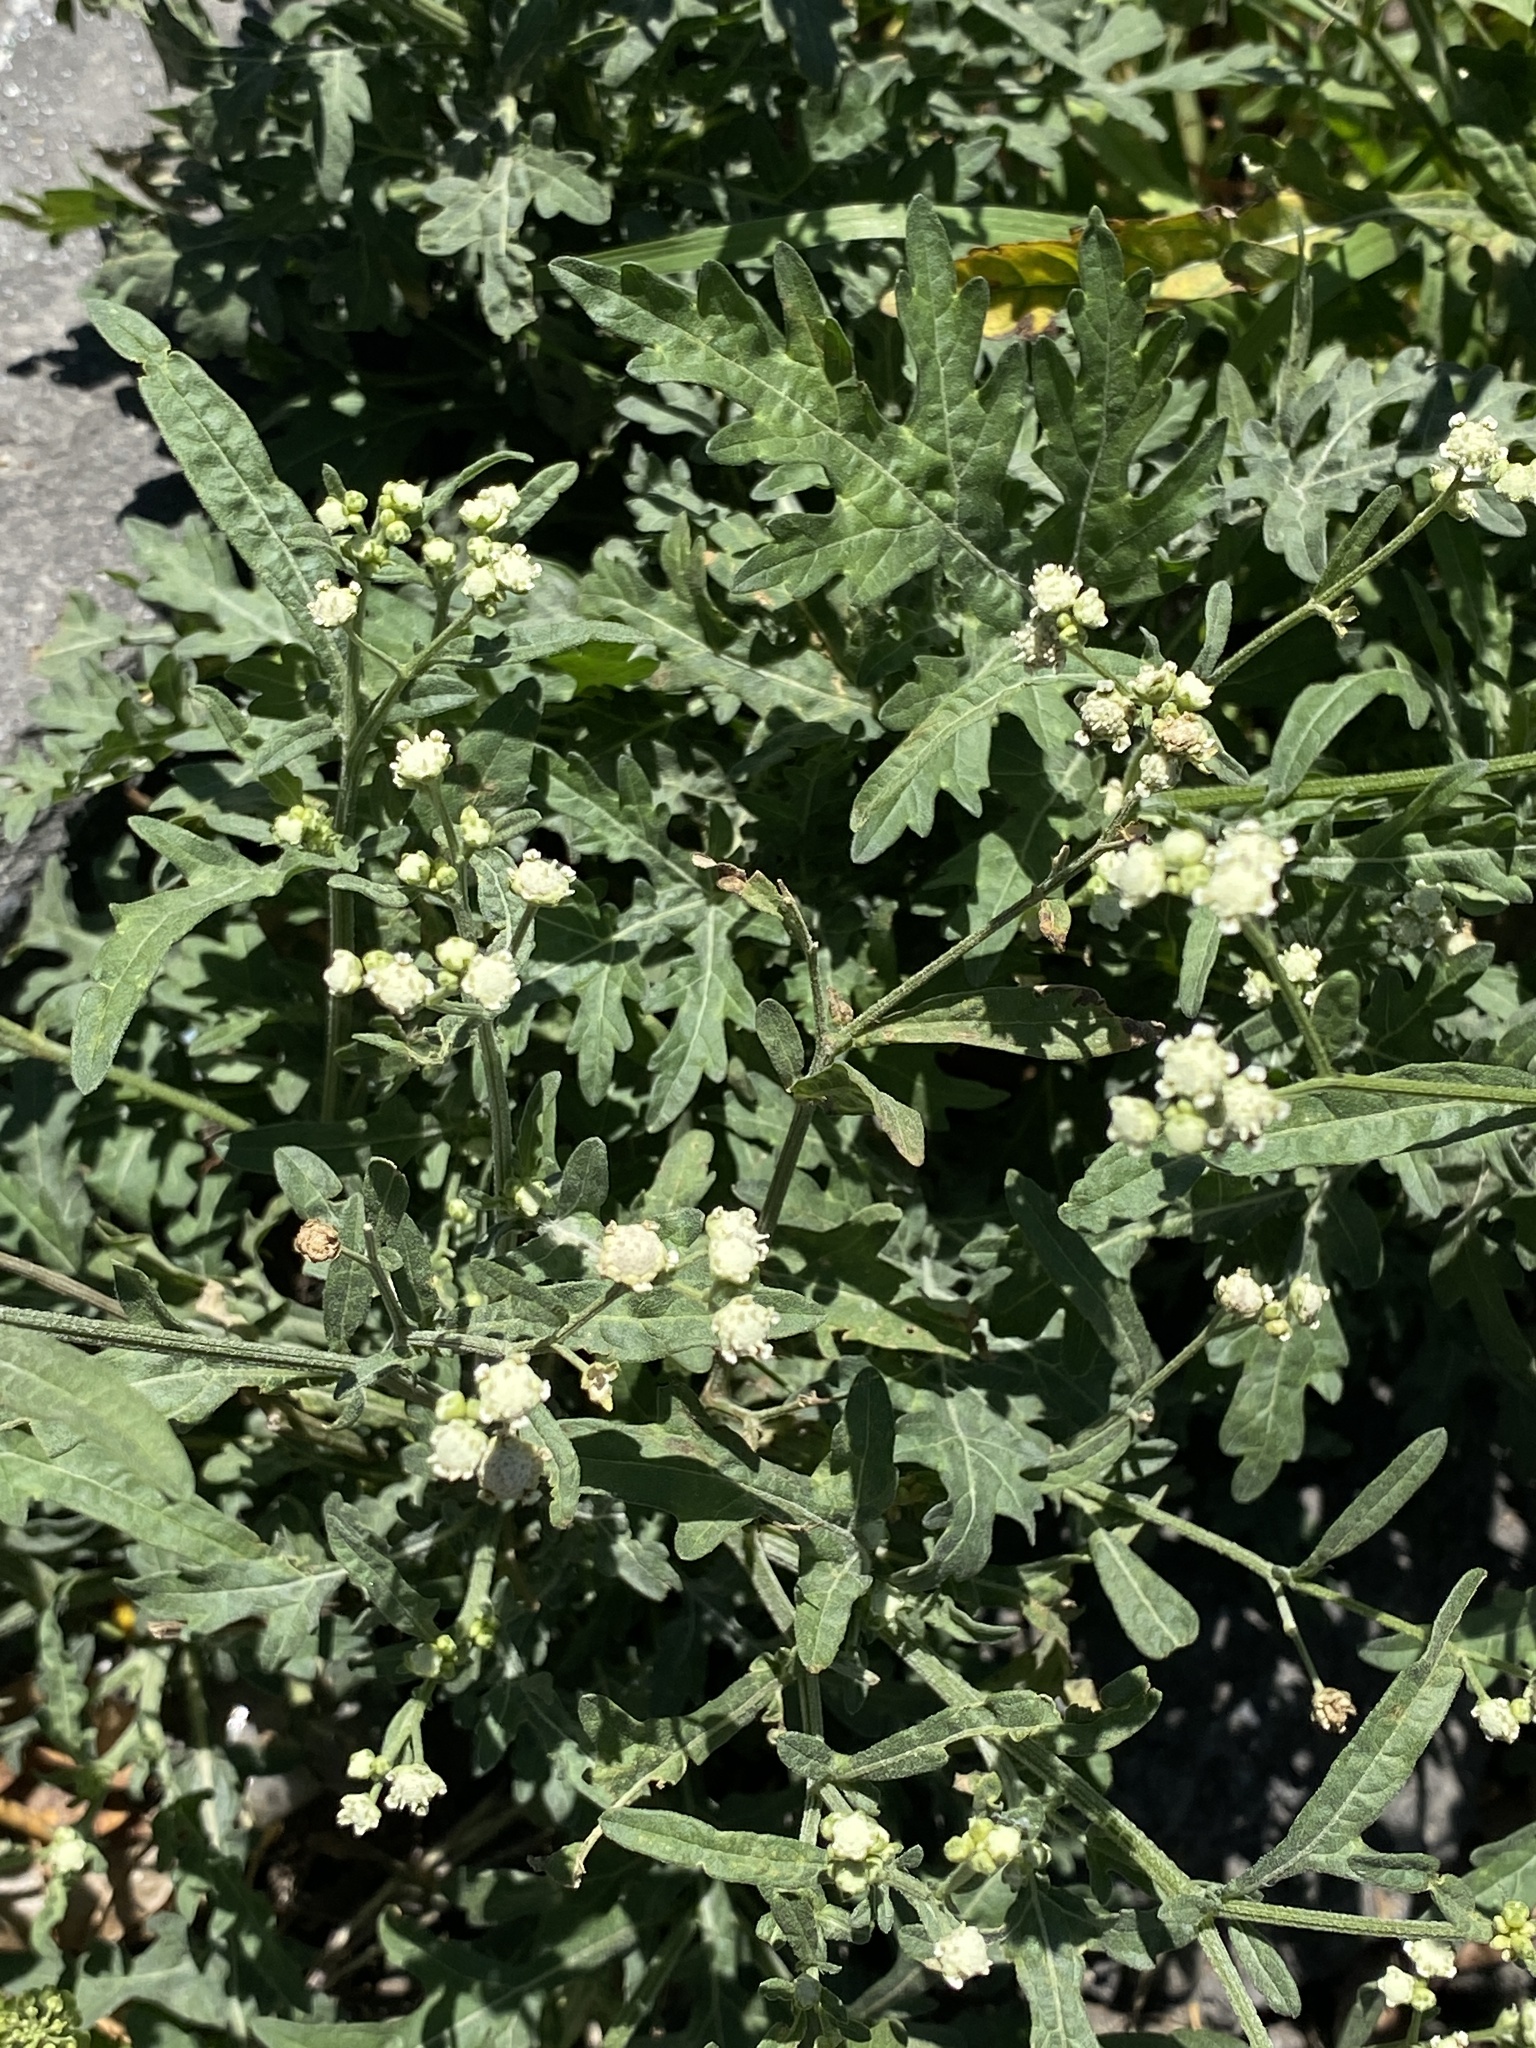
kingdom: Plantae
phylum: Tracheophyta
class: Magnoliopsida
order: Asterales
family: Asteraceae
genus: Parthenium
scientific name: Parthenium hysterophorus
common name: Santa maria feverfew
